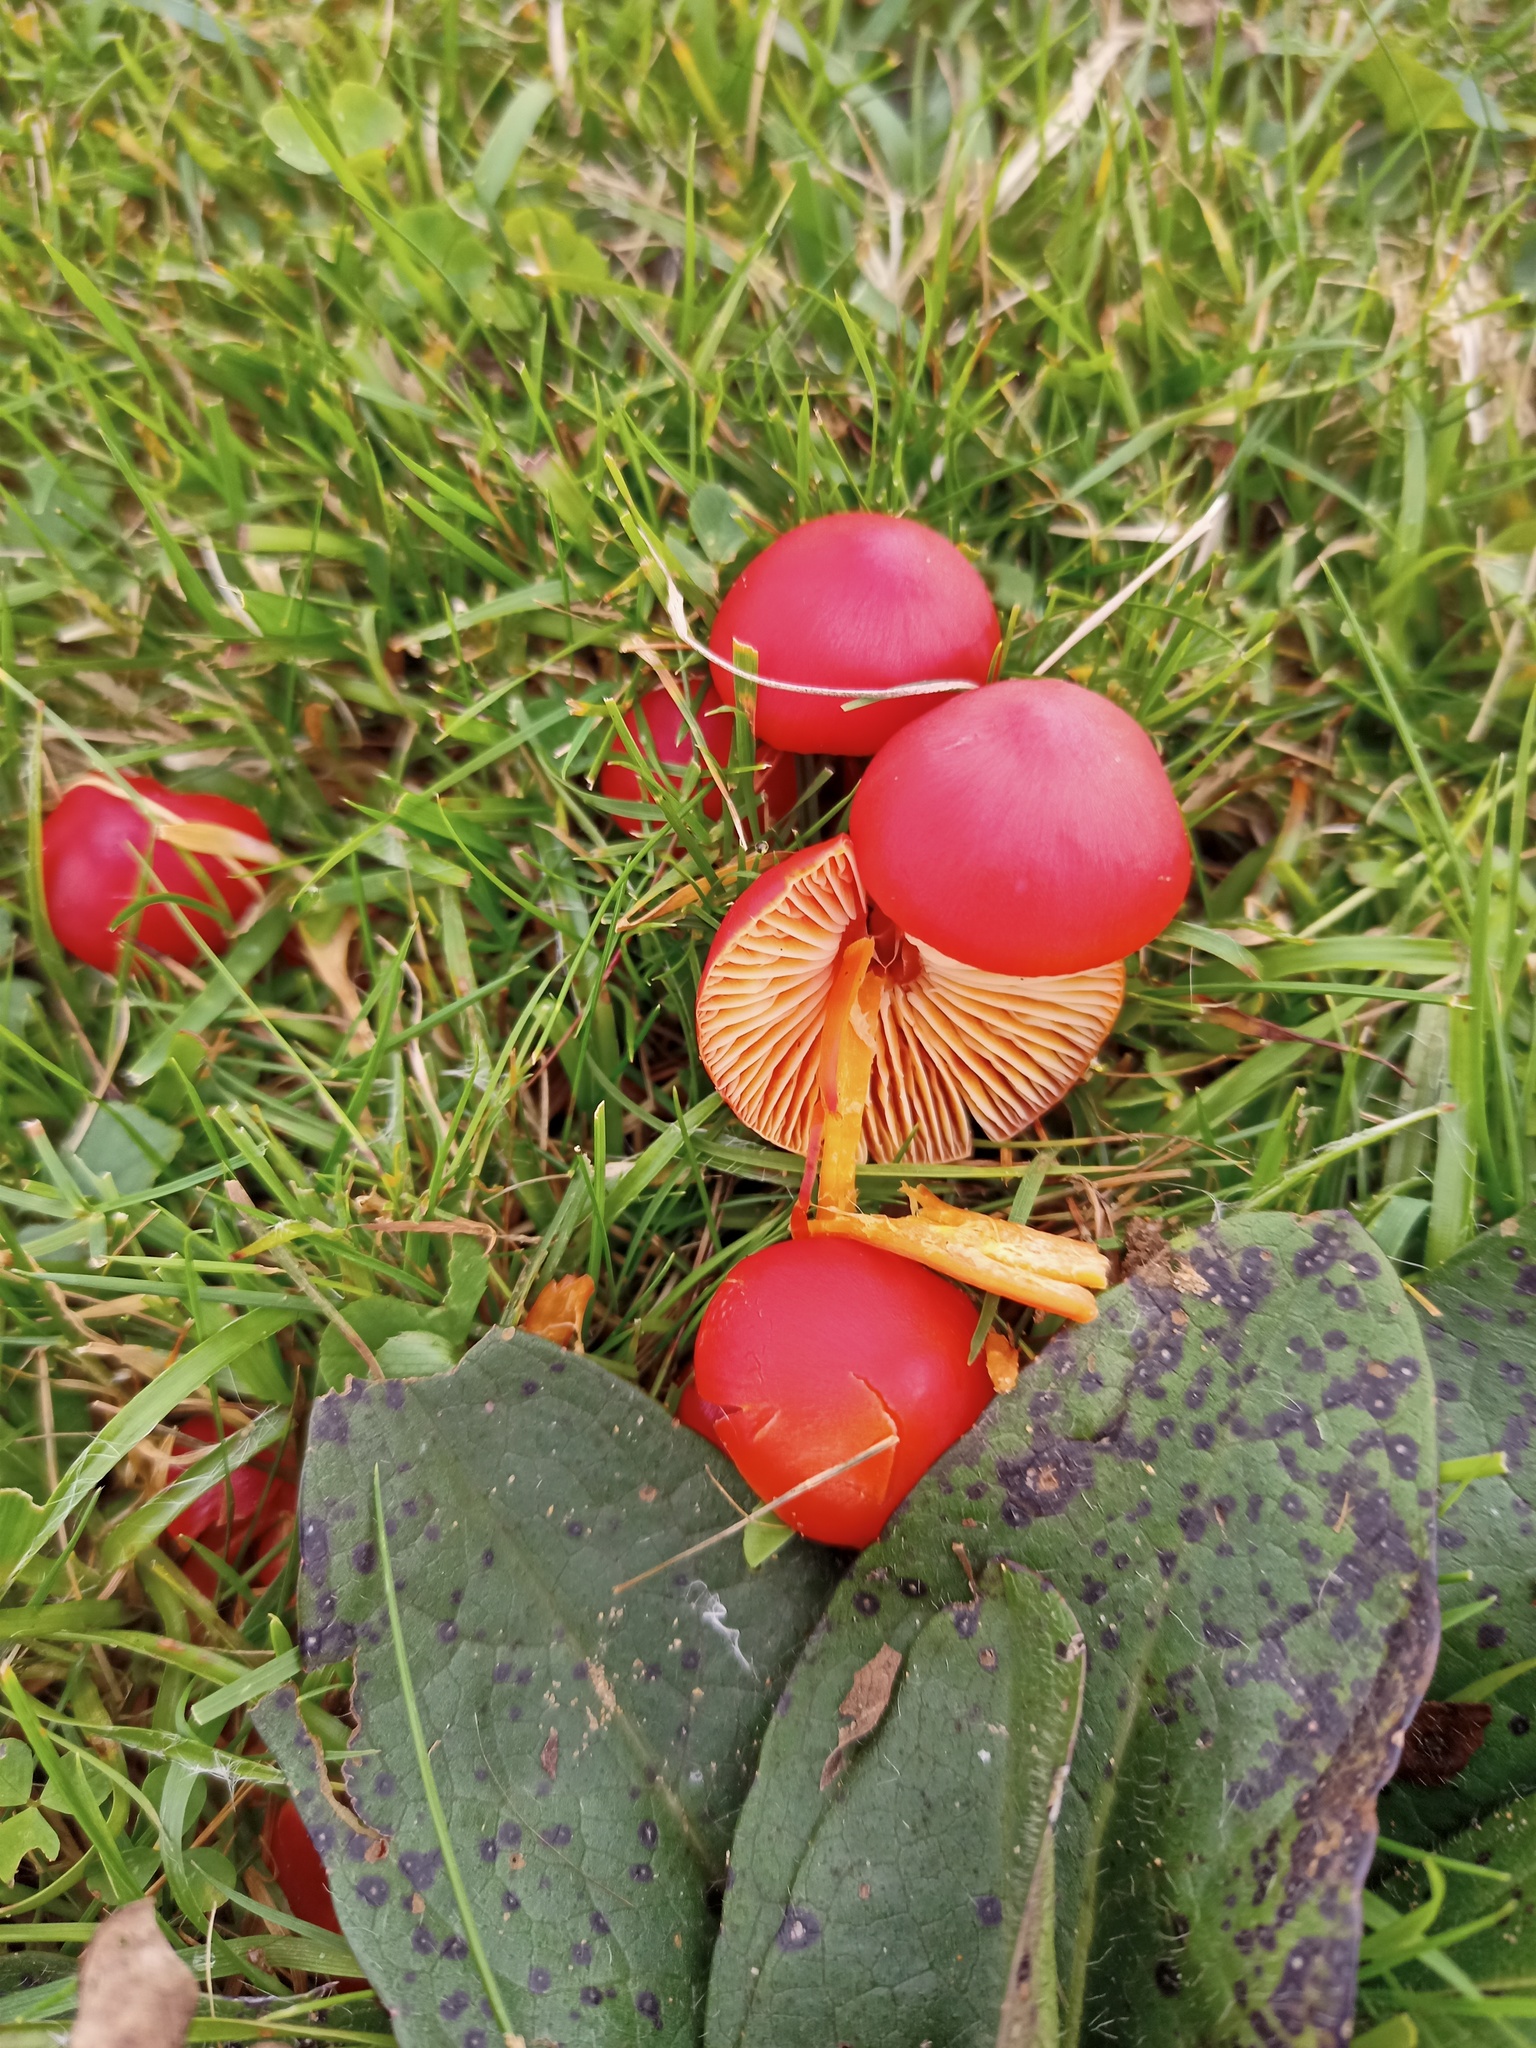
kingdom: Fungi
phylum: Basidiomycota
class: Agaricomycetes
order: Agaricales
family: Hygrophoraceae
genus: Hygrocybe
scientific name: Hygrocybe coccinea
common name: Scarlet hood
